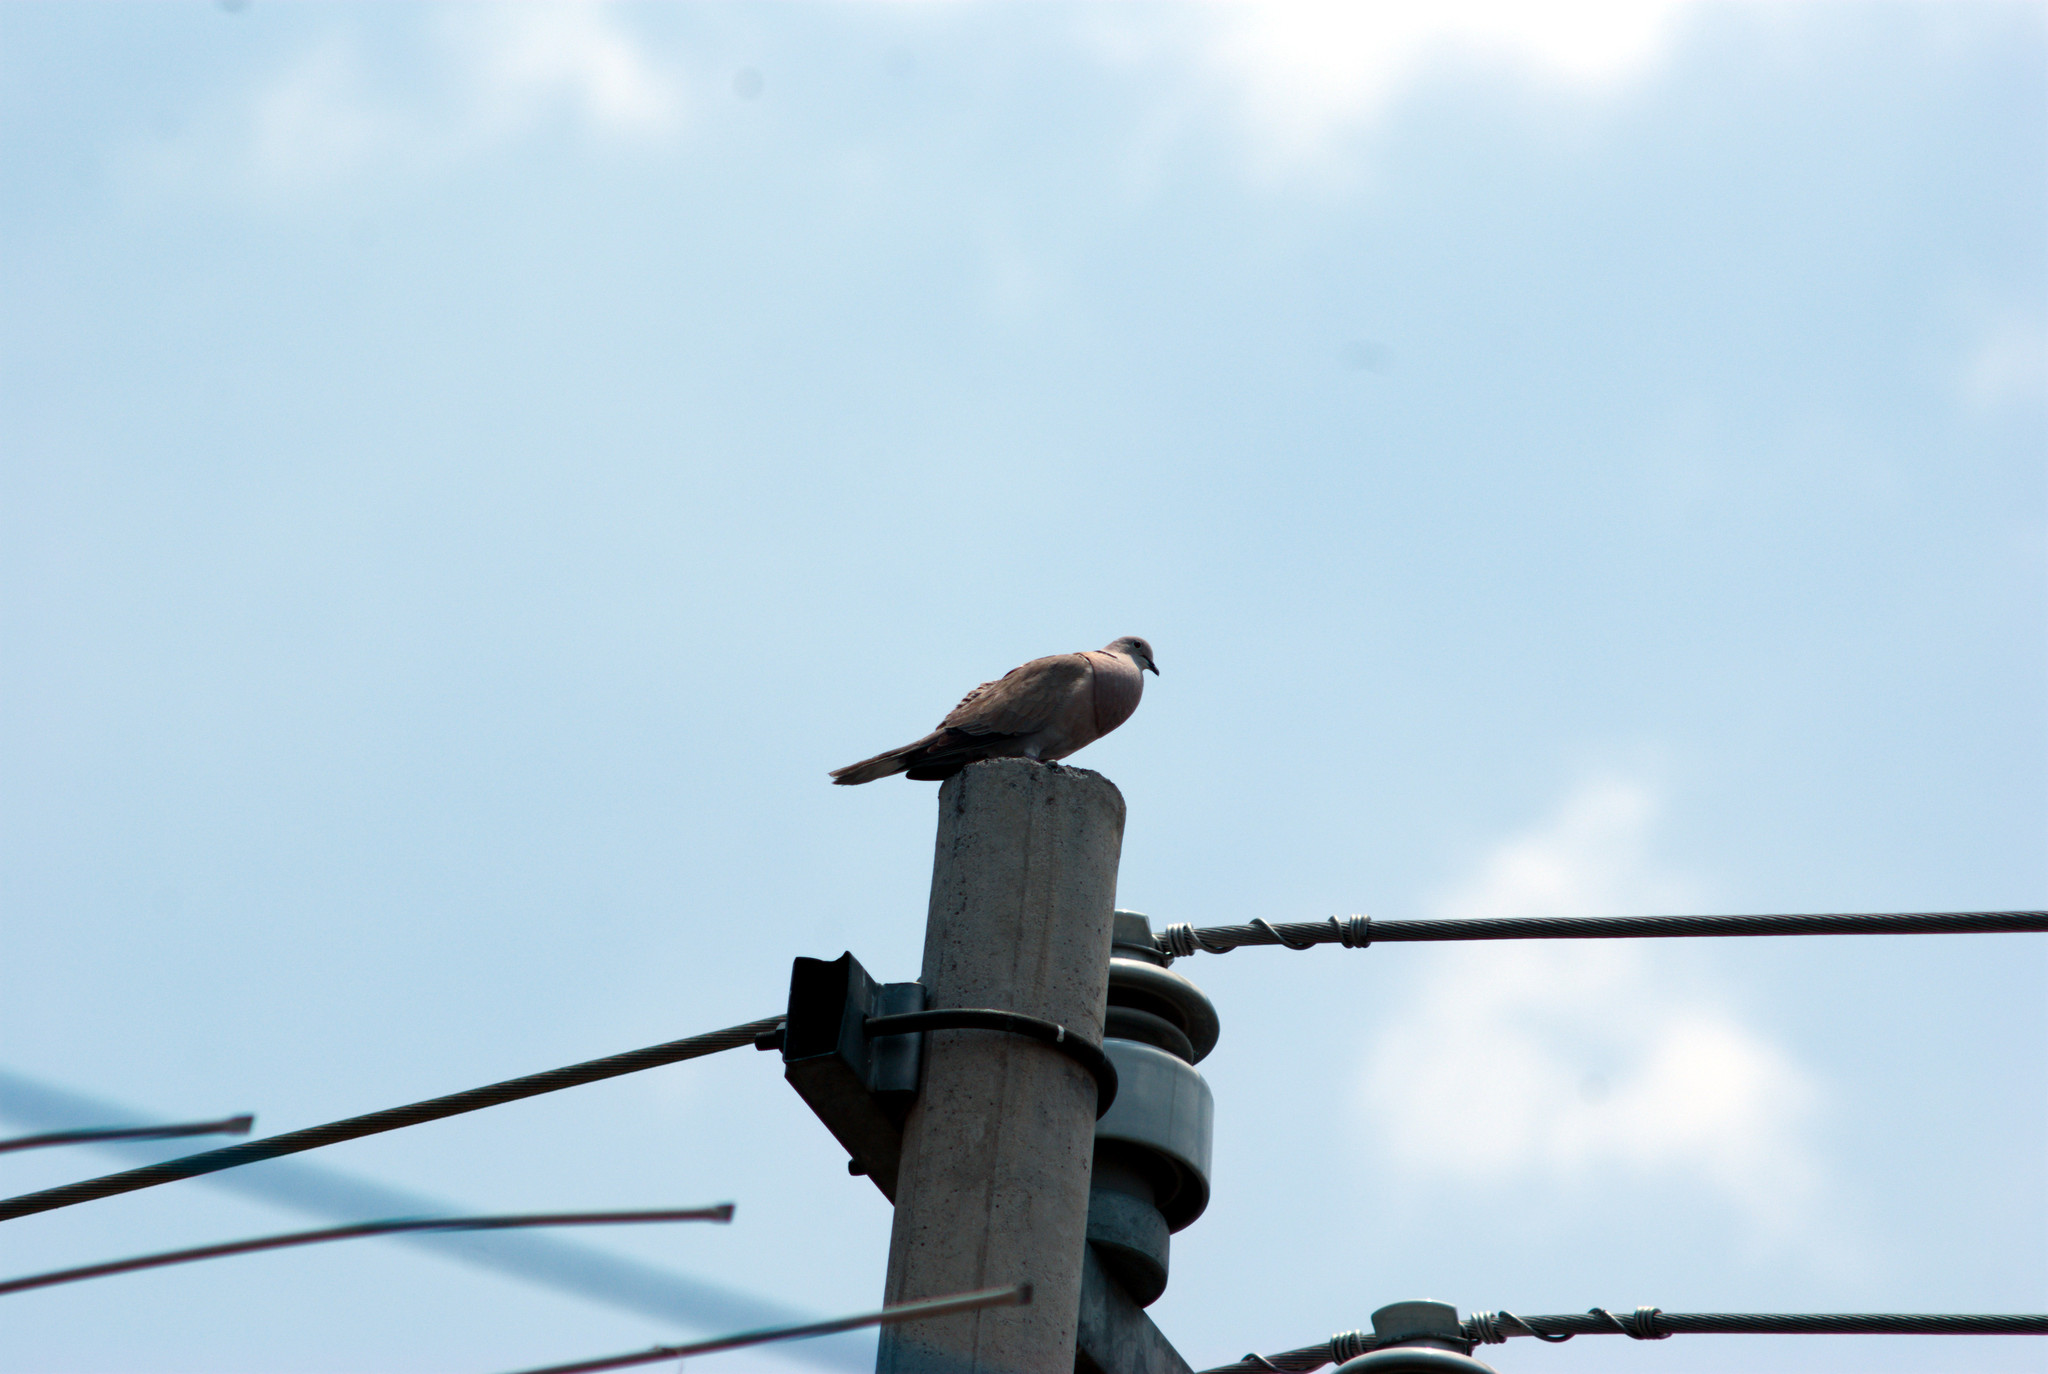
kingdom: Animalia
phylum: Chordata
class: Aves
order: Columbiformes
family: Columbidae
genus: Streptopelia
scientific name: Streptopelia decaocto
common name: Eurasian collared dove
